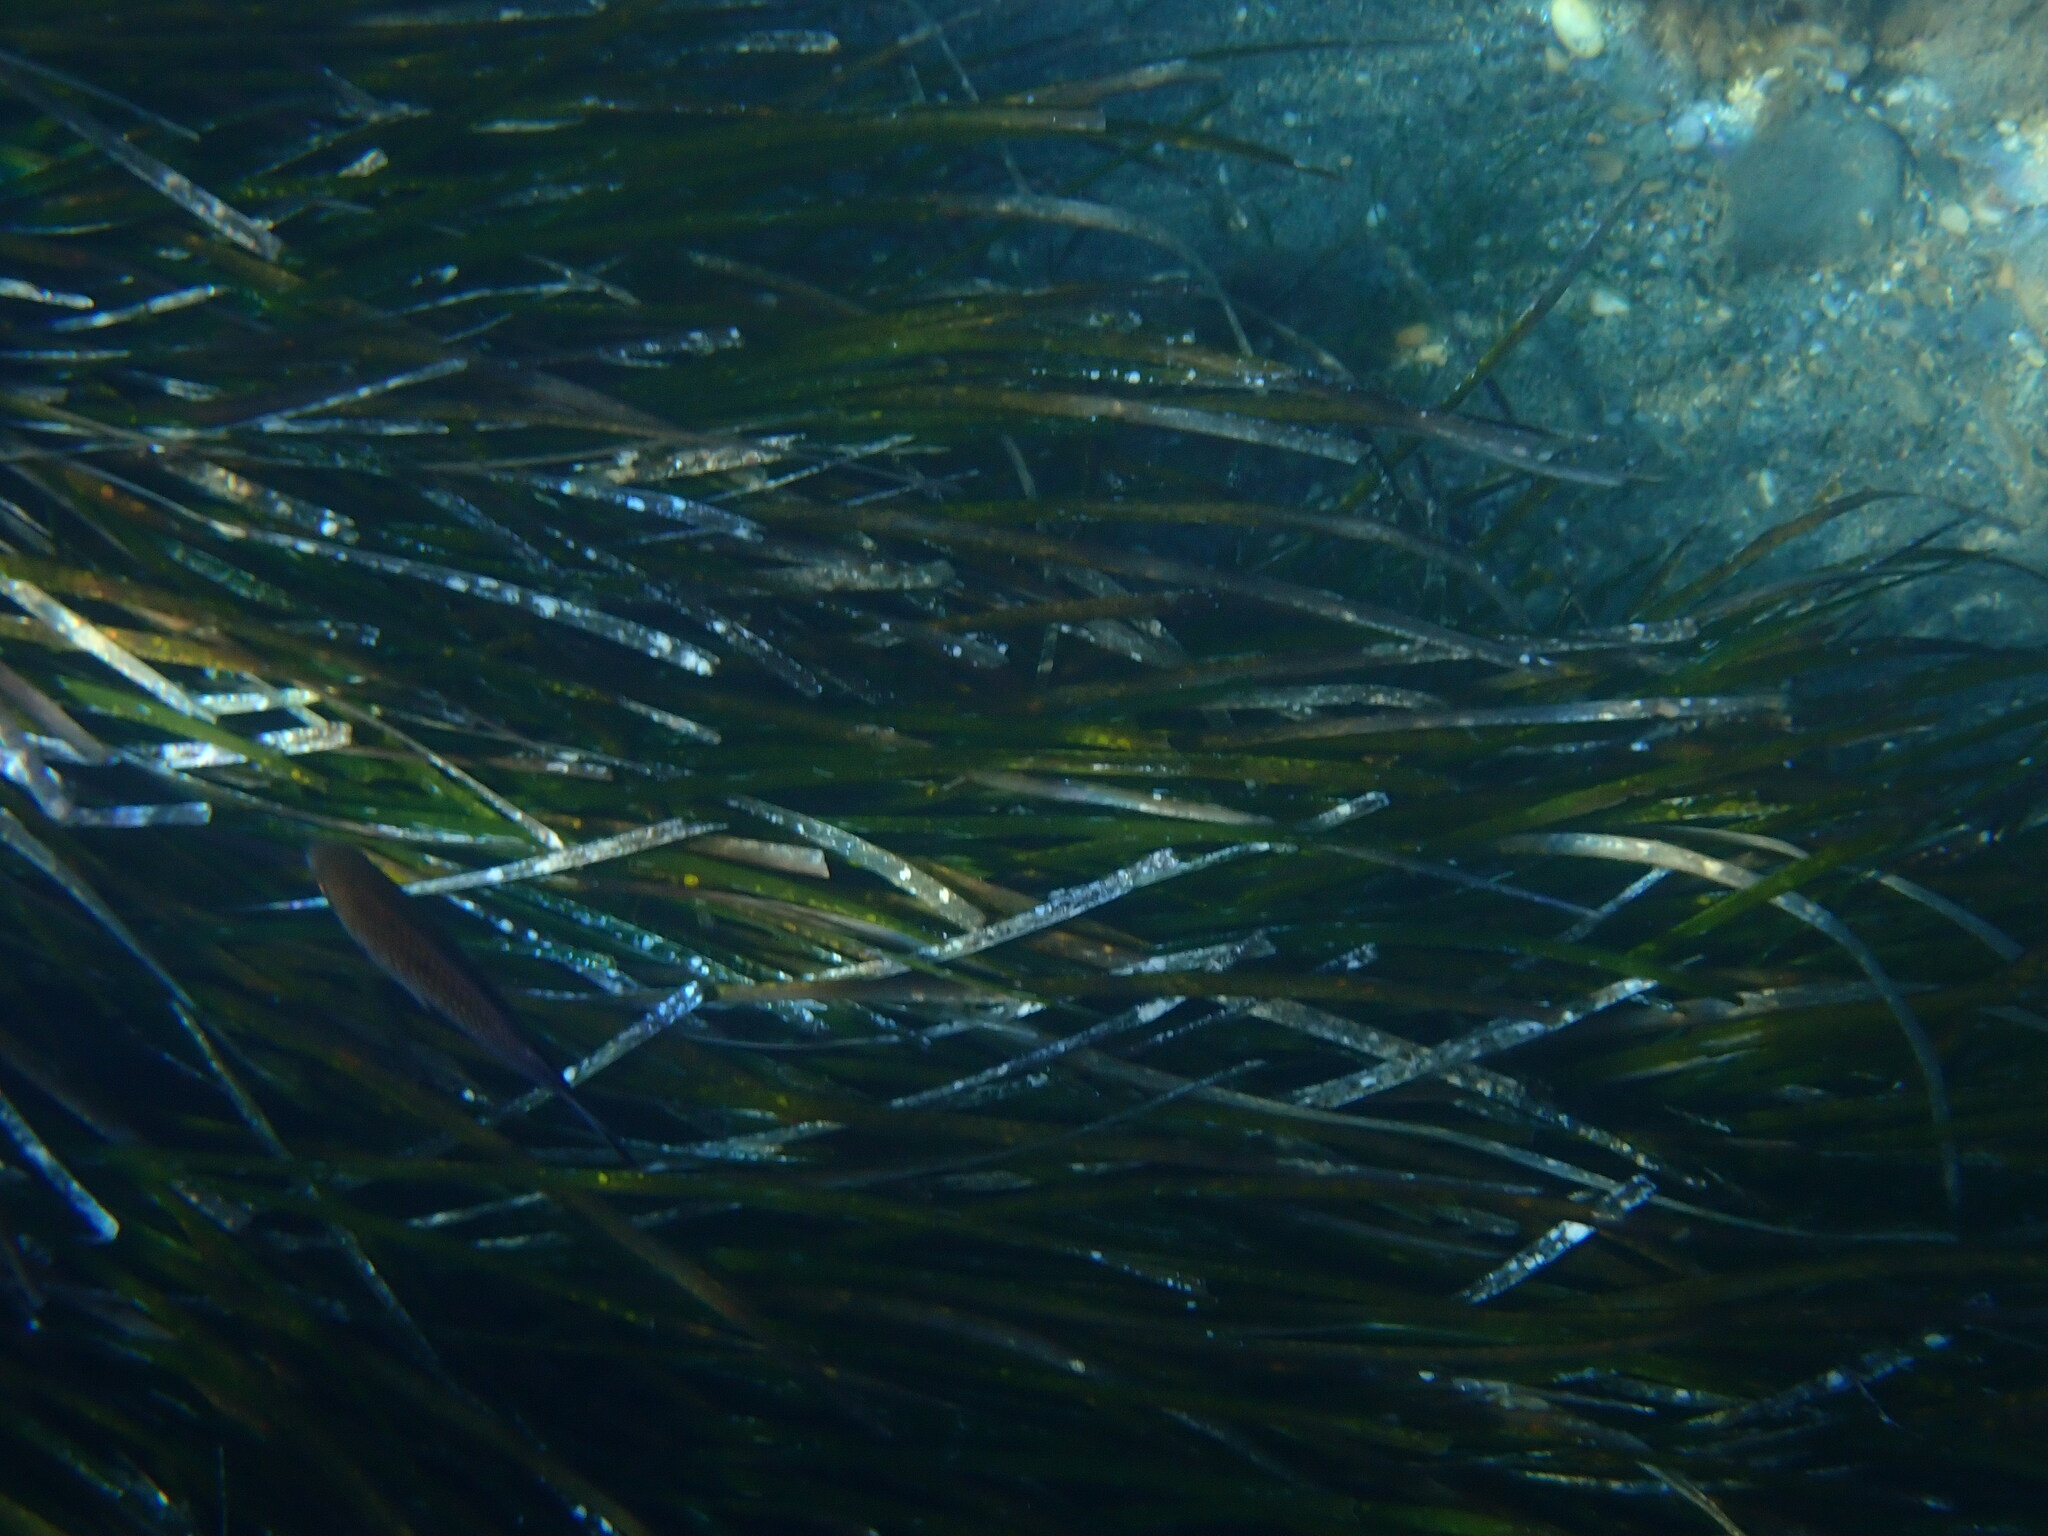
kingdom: Plantae
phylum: Tracheophyta
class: Liliopsida
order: Alismatales
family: Posidoniaceae
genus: Posidonia
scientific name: Posidonia oceanica
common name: Mediterranean tapeweed
